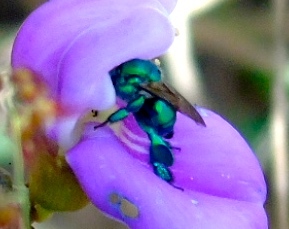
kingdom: Animalia
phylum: Arthropoda
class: Insecta
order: Hymenoptera
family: Apidae
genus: Euglossa
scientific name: Euglossa
